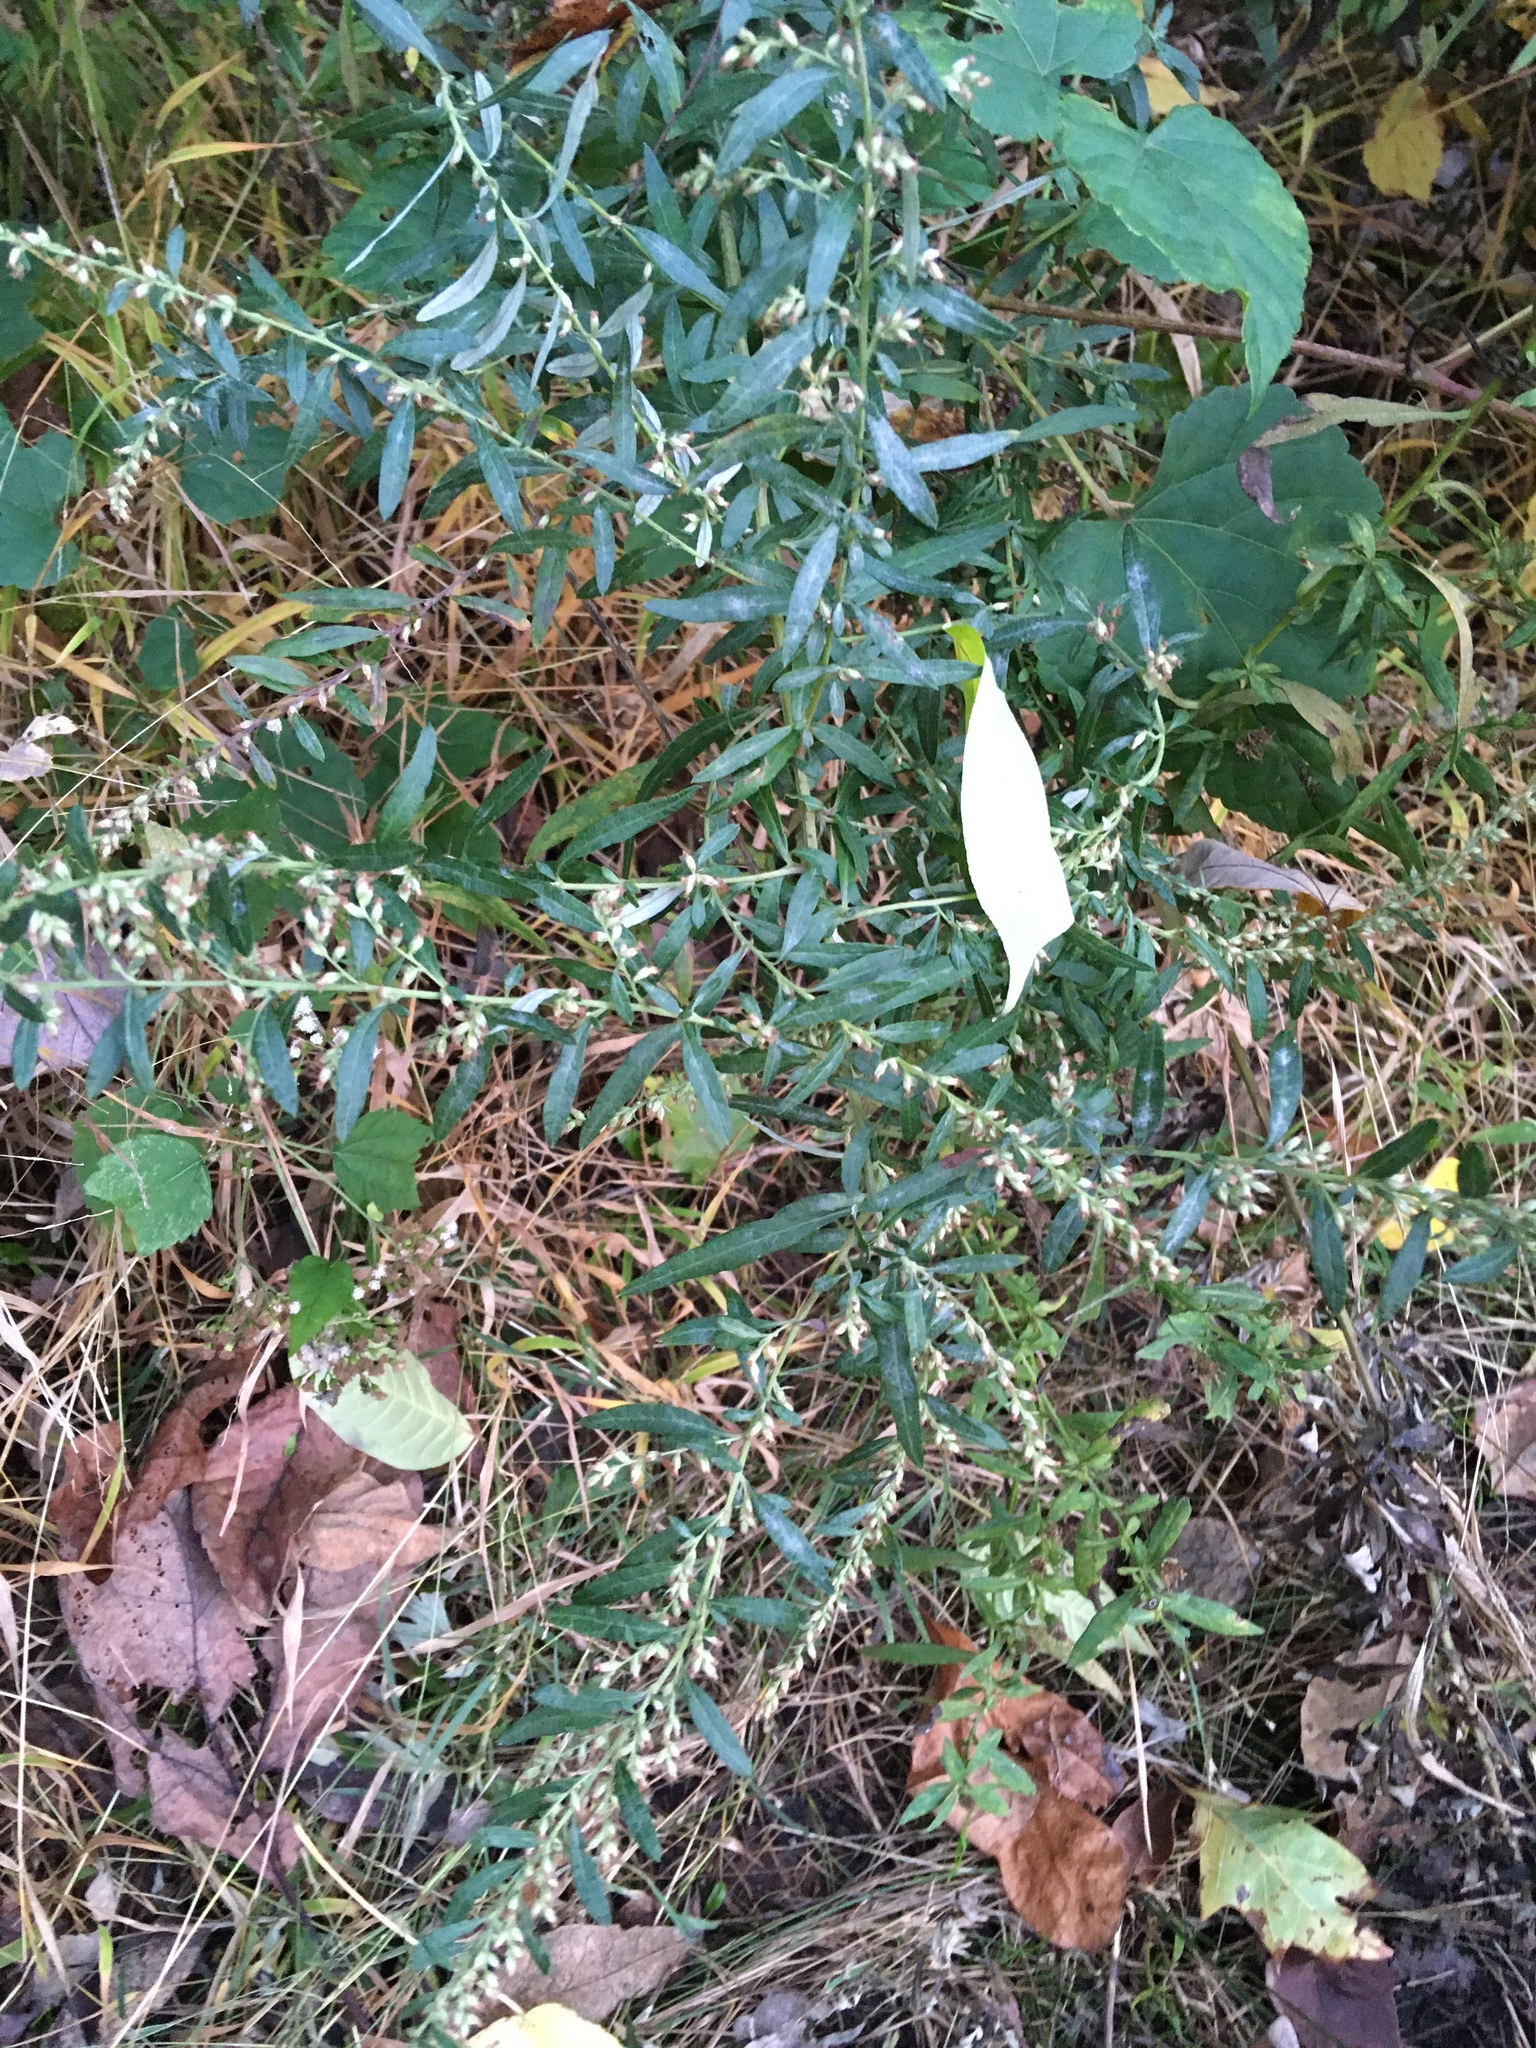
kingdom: Plantae
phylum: Tracheophyta
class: Magnoliopsida
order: Asterales
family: Asteraceae
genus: Artemisia
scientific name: Artemisia vulgaris
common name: Mugwort
